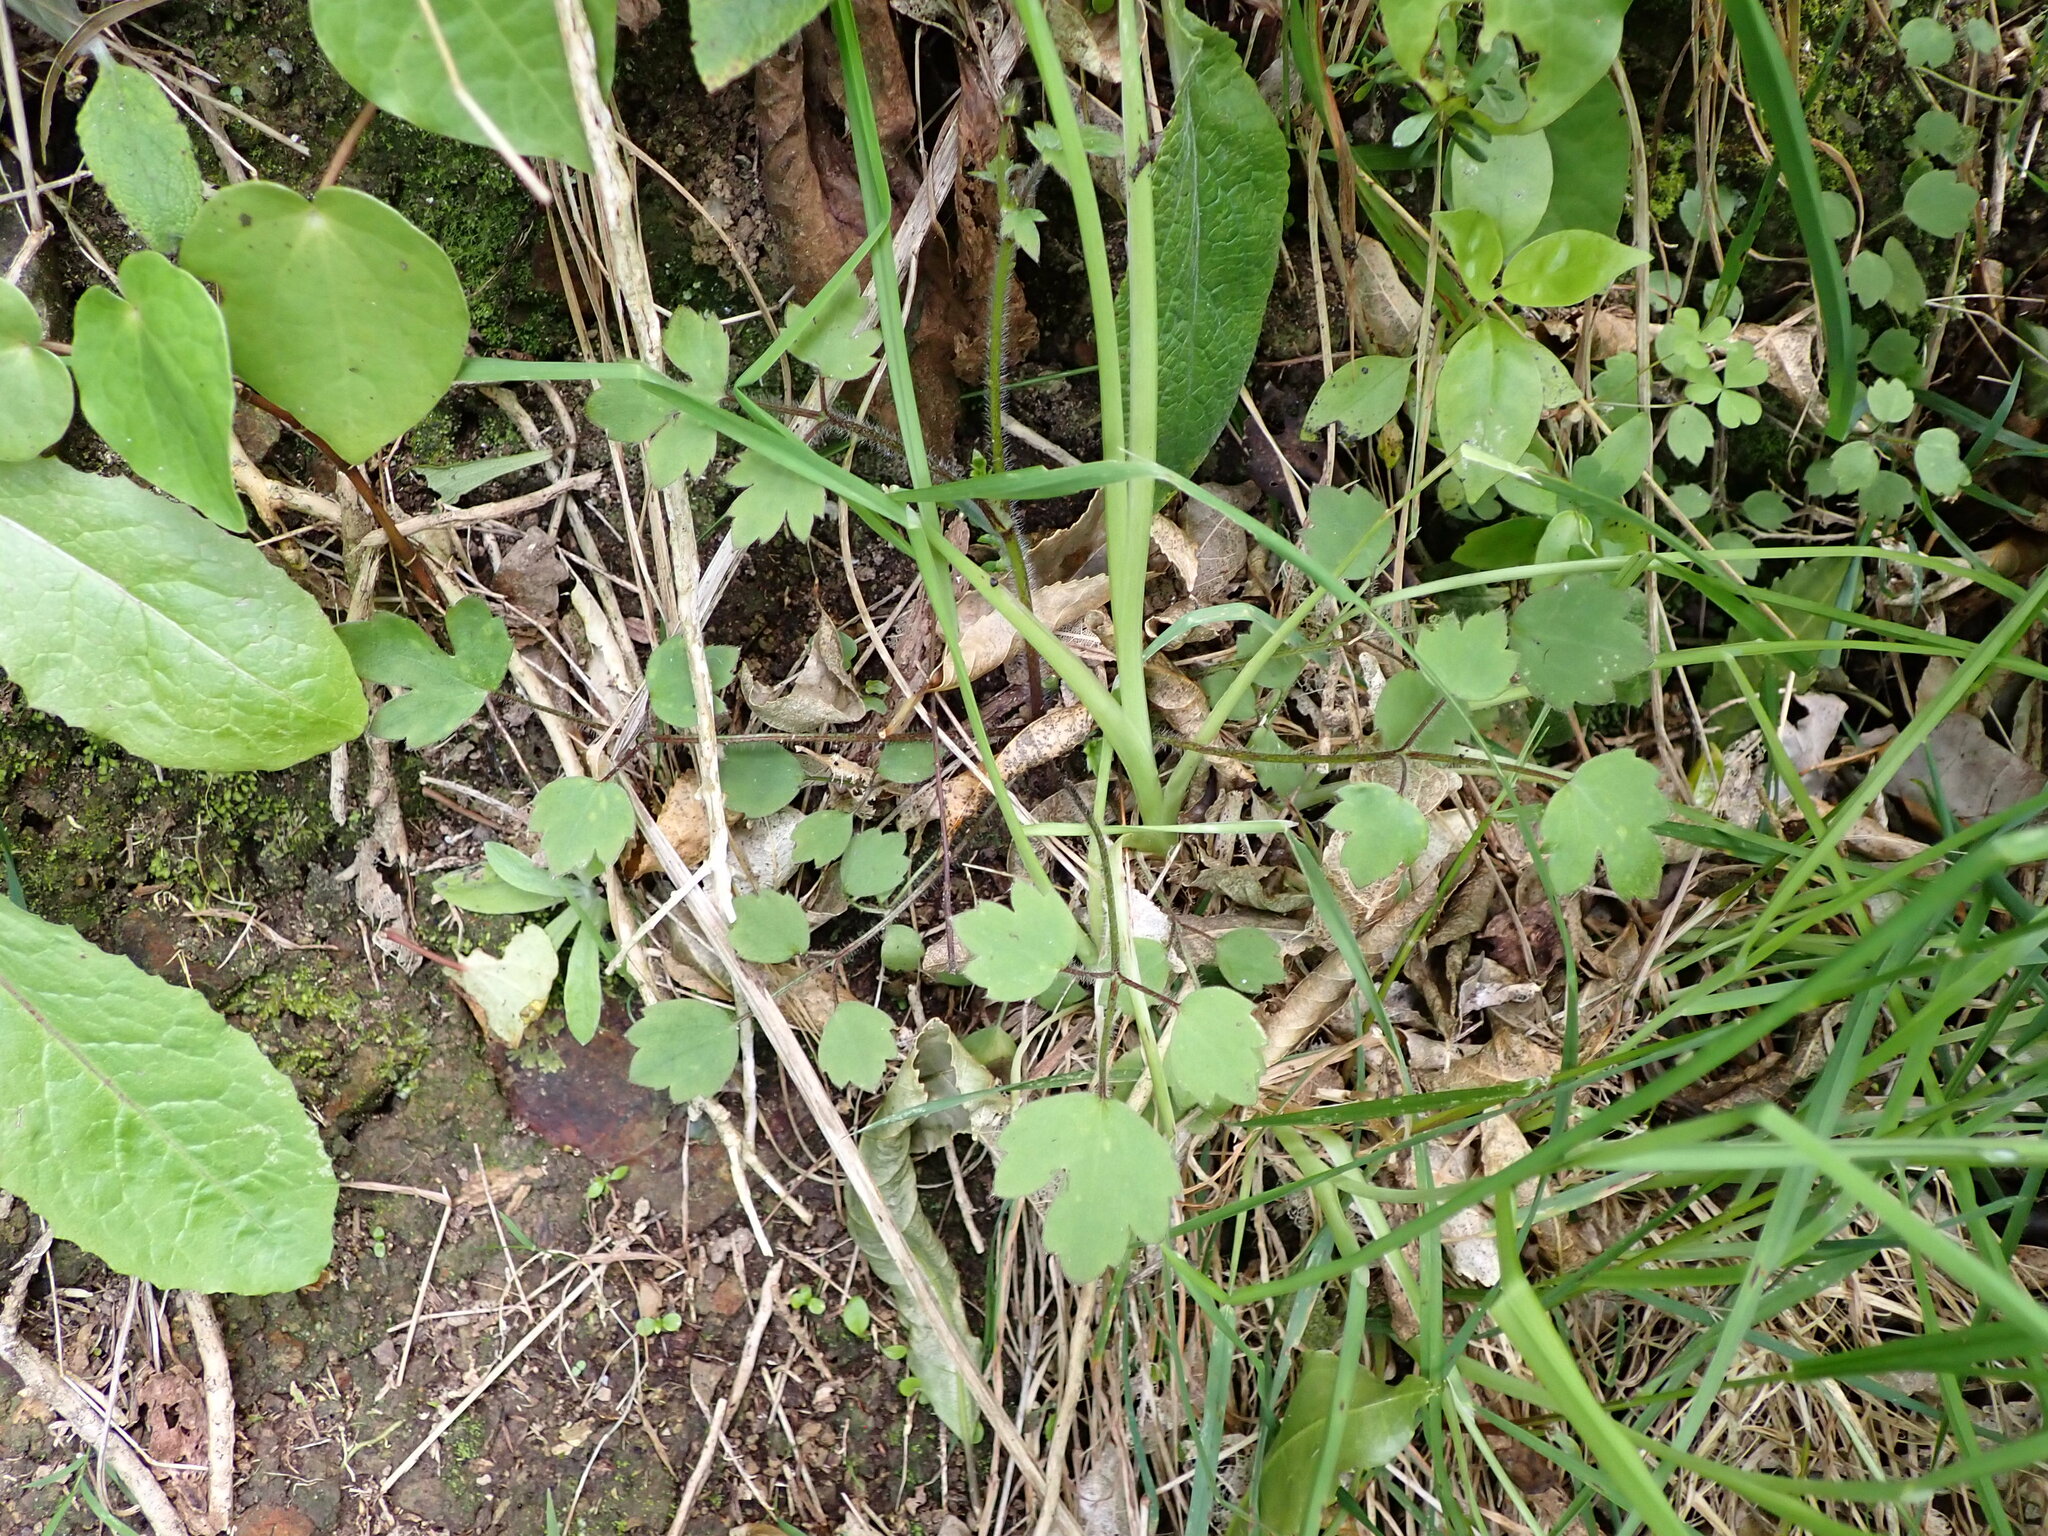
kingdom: Plantae
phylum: Tracheophyta
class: Magnoliopsida
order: Ranunculales
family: Ranunculaceae
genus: Ranunculus
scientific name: Ranunculus reflexus
